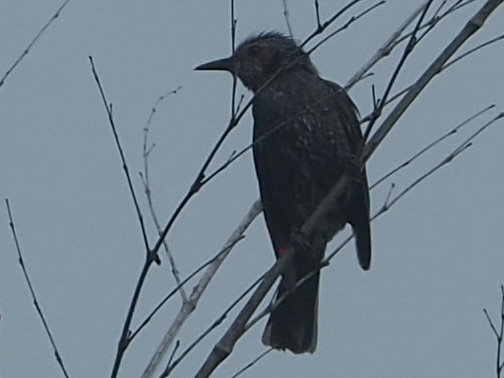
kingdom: Animalia
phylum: Chordata
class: Aves
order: Passeriformes
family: Pycnonotidae
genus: Hypsipetes
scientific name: Hypsipetes amaurotis
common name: Brown-eared bulbul
